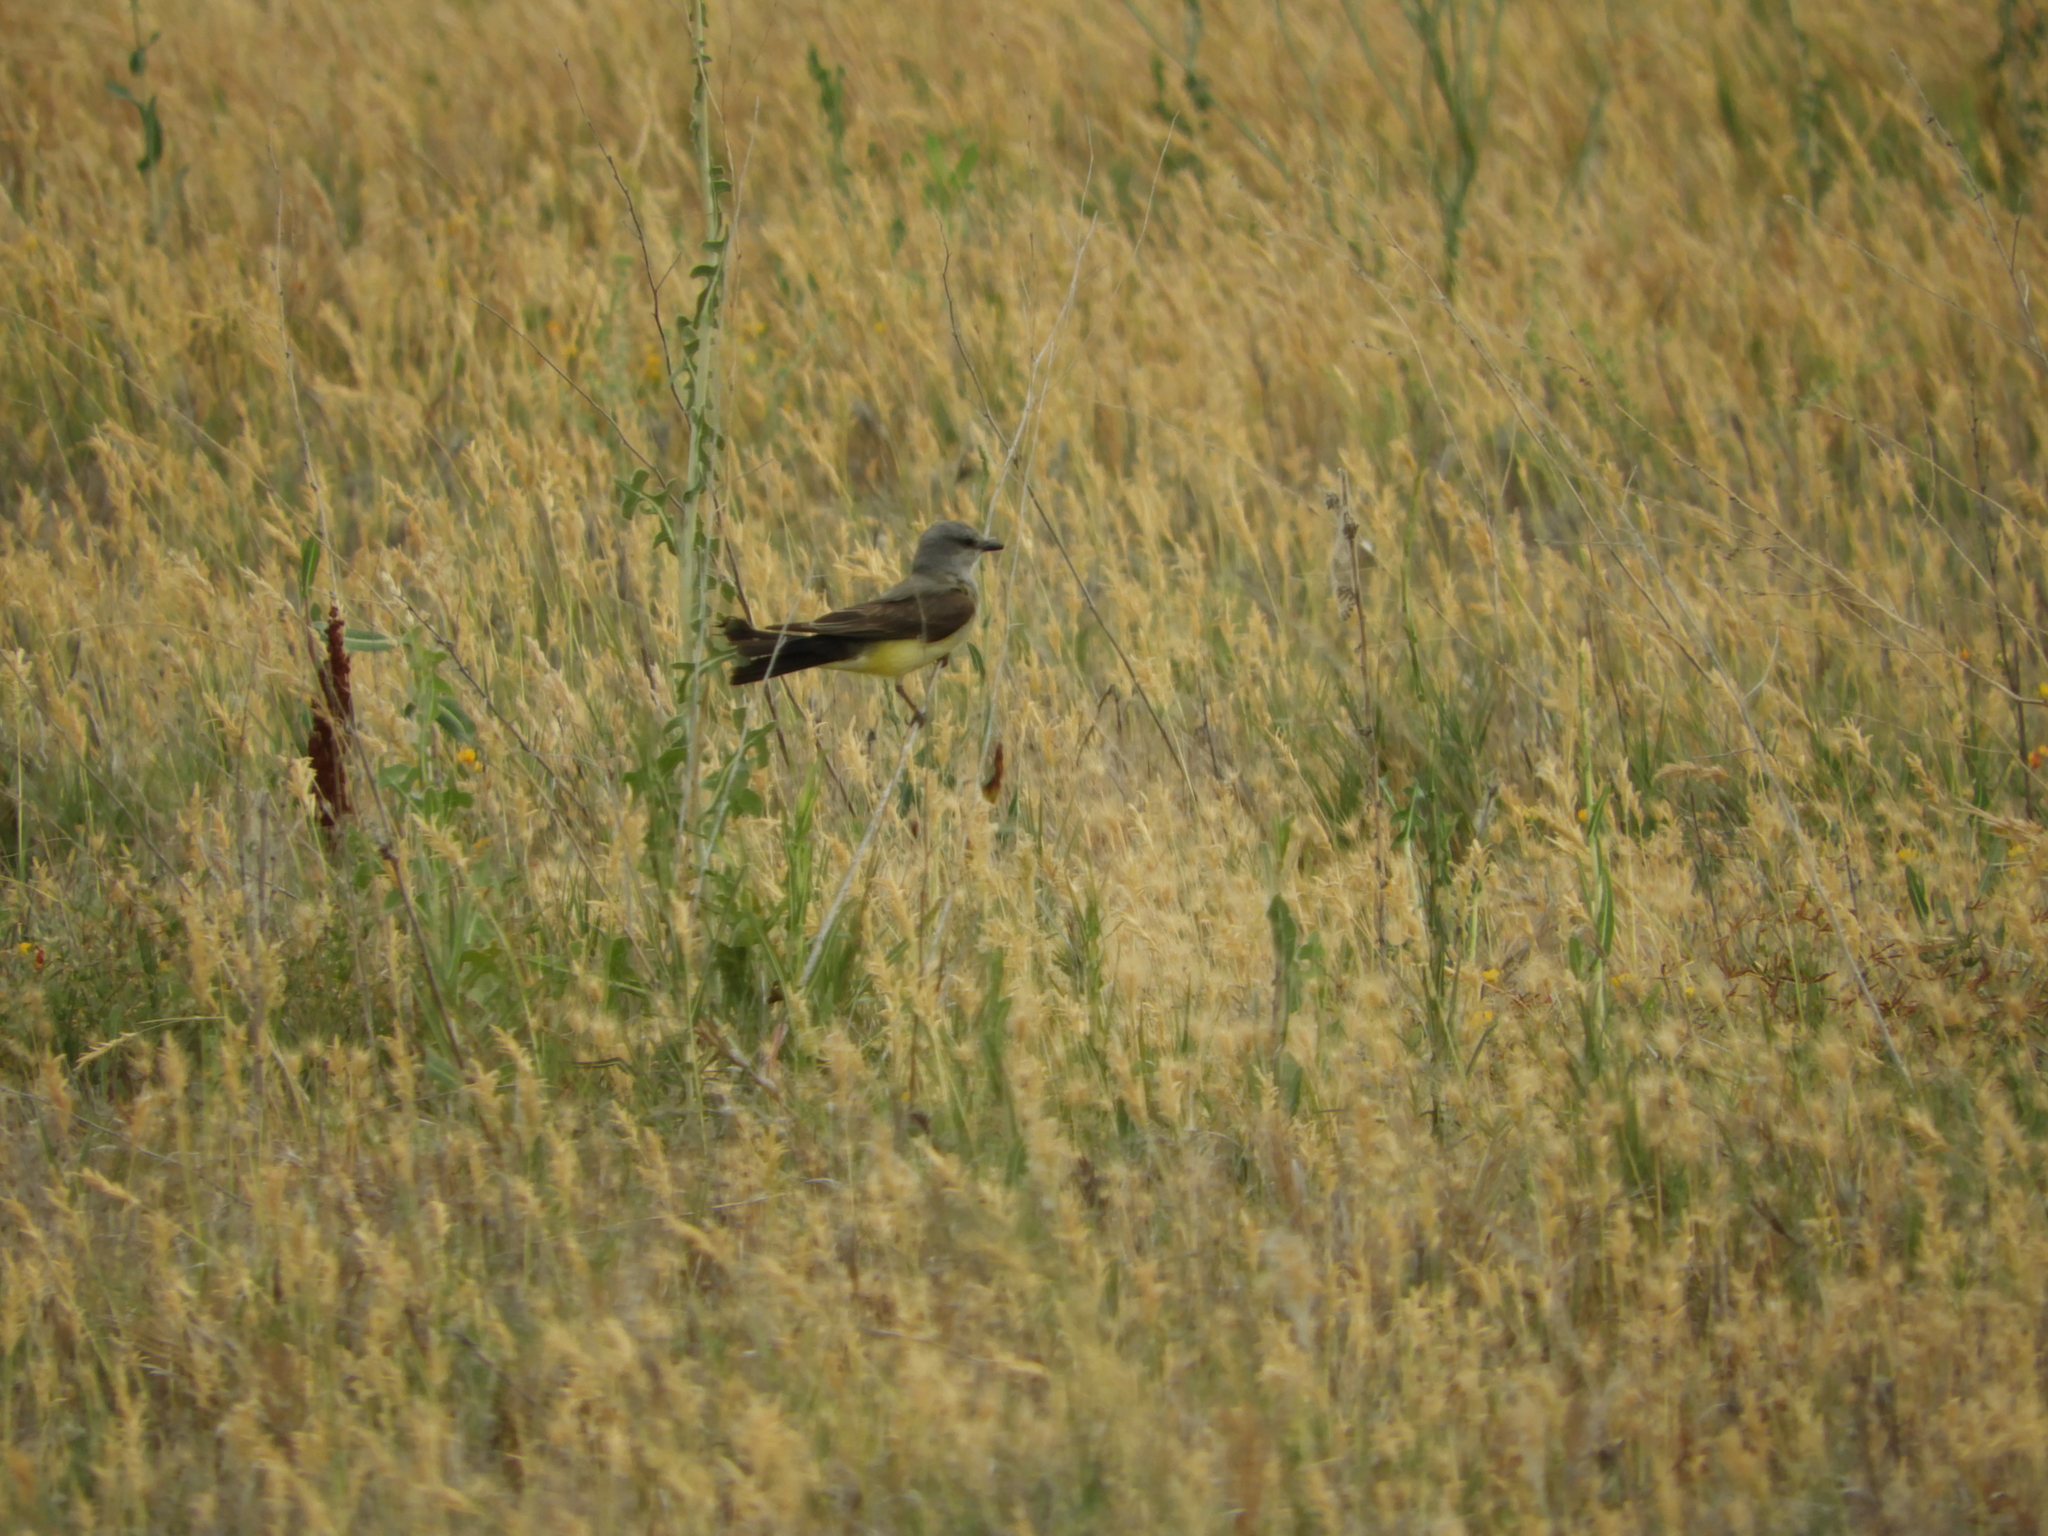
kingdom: Animalia
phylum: Chordata
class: Aves
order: Passeriformes
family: Tyrannidae
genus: Tyrannus
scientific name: Tyrannus verticalis
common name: Western kingbird
